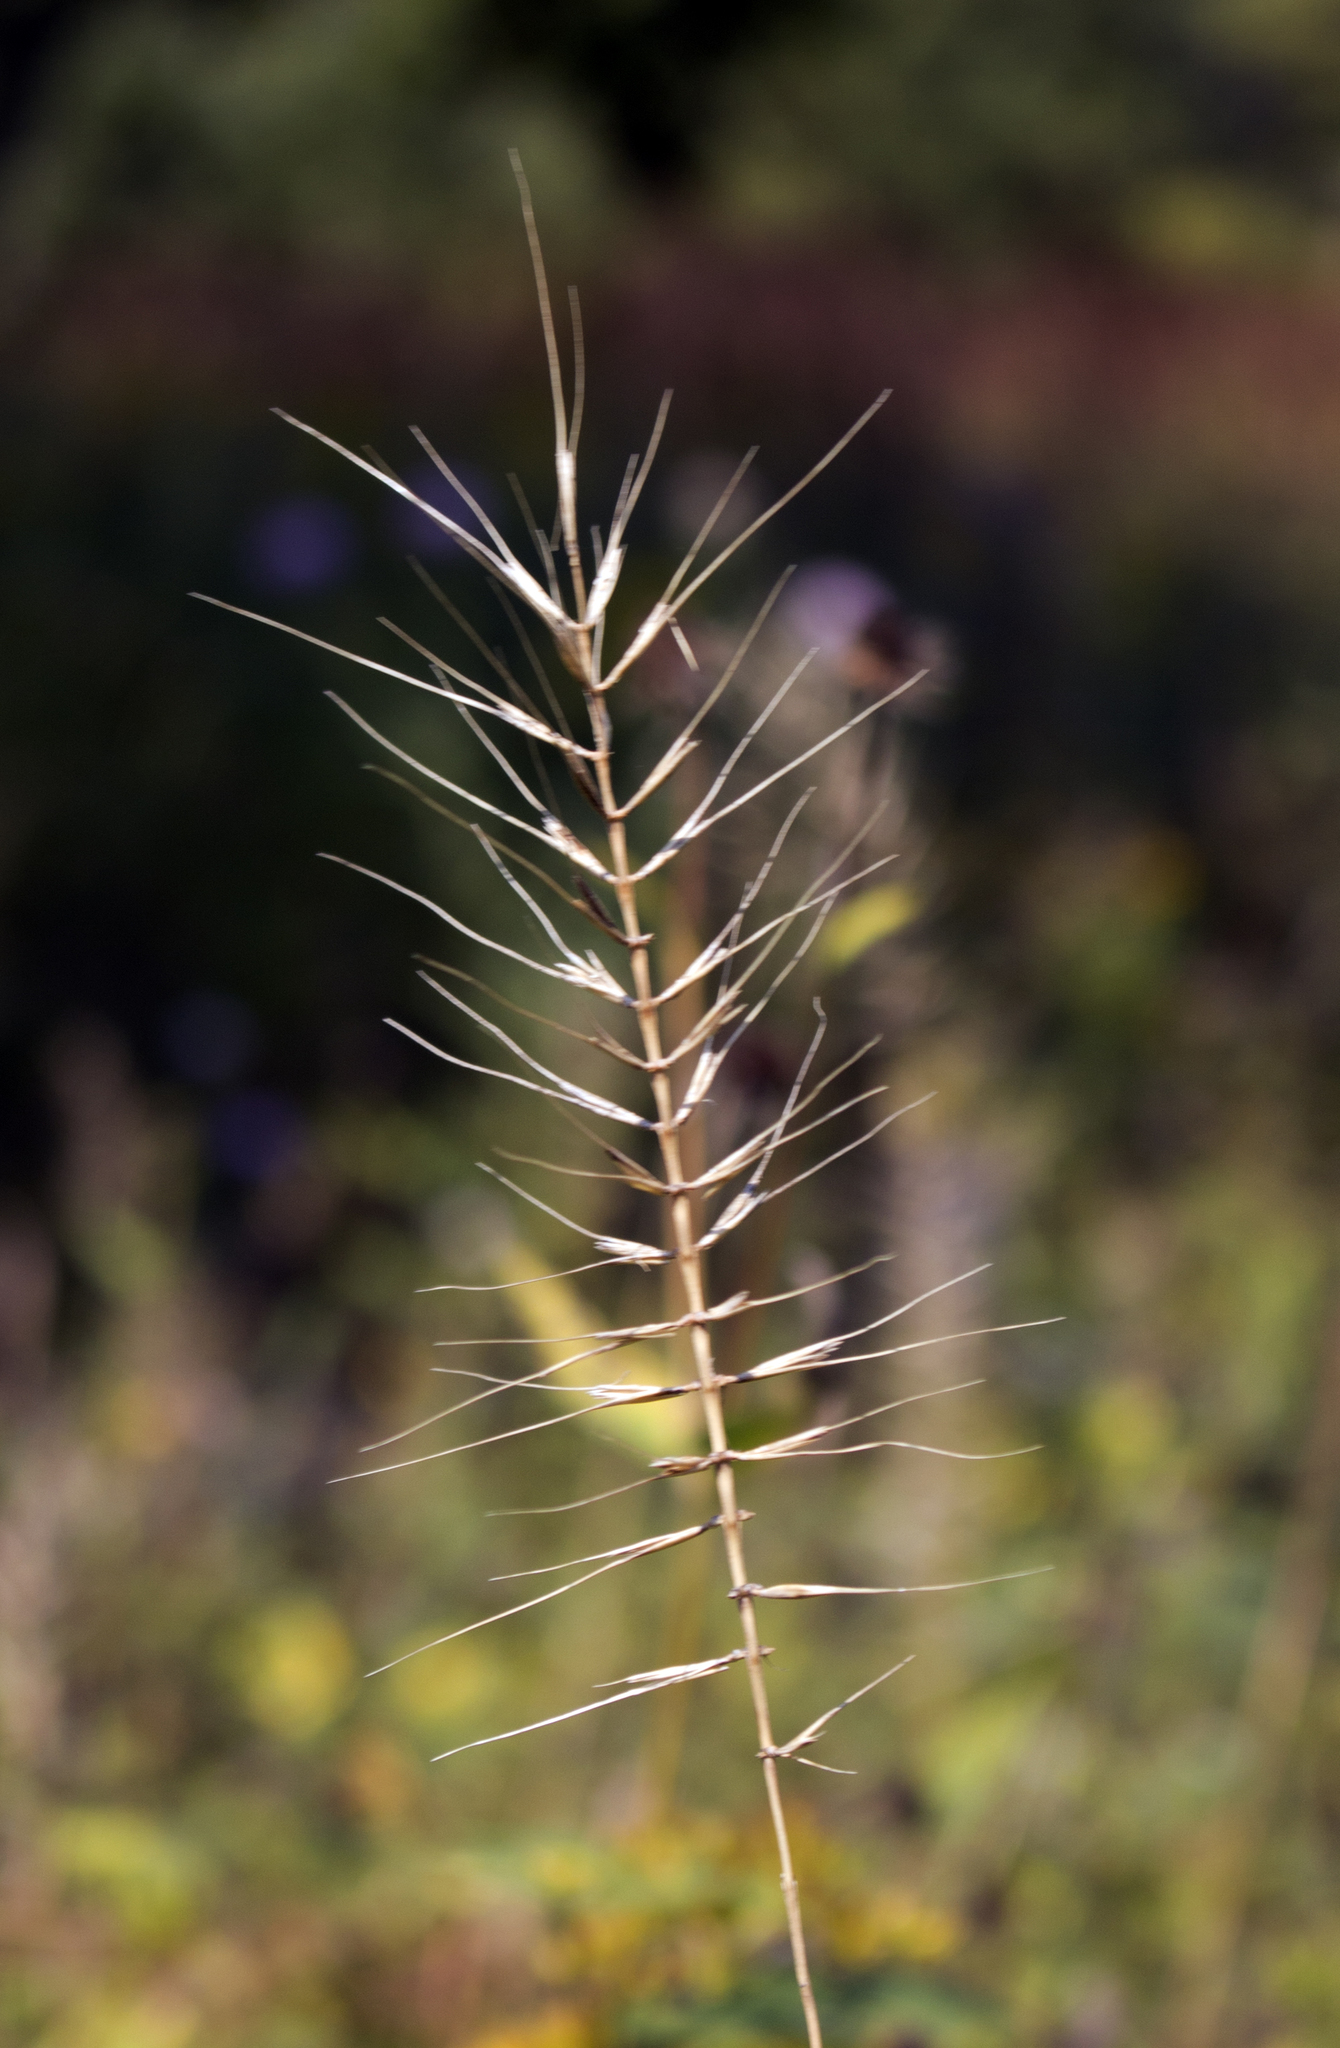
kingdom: Plantae
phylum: Tracheophyta
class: Liliopsida
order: Poales
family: Poaceae
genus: Elymus
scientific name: Elymus hystrix
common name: Bottlebrush grass
